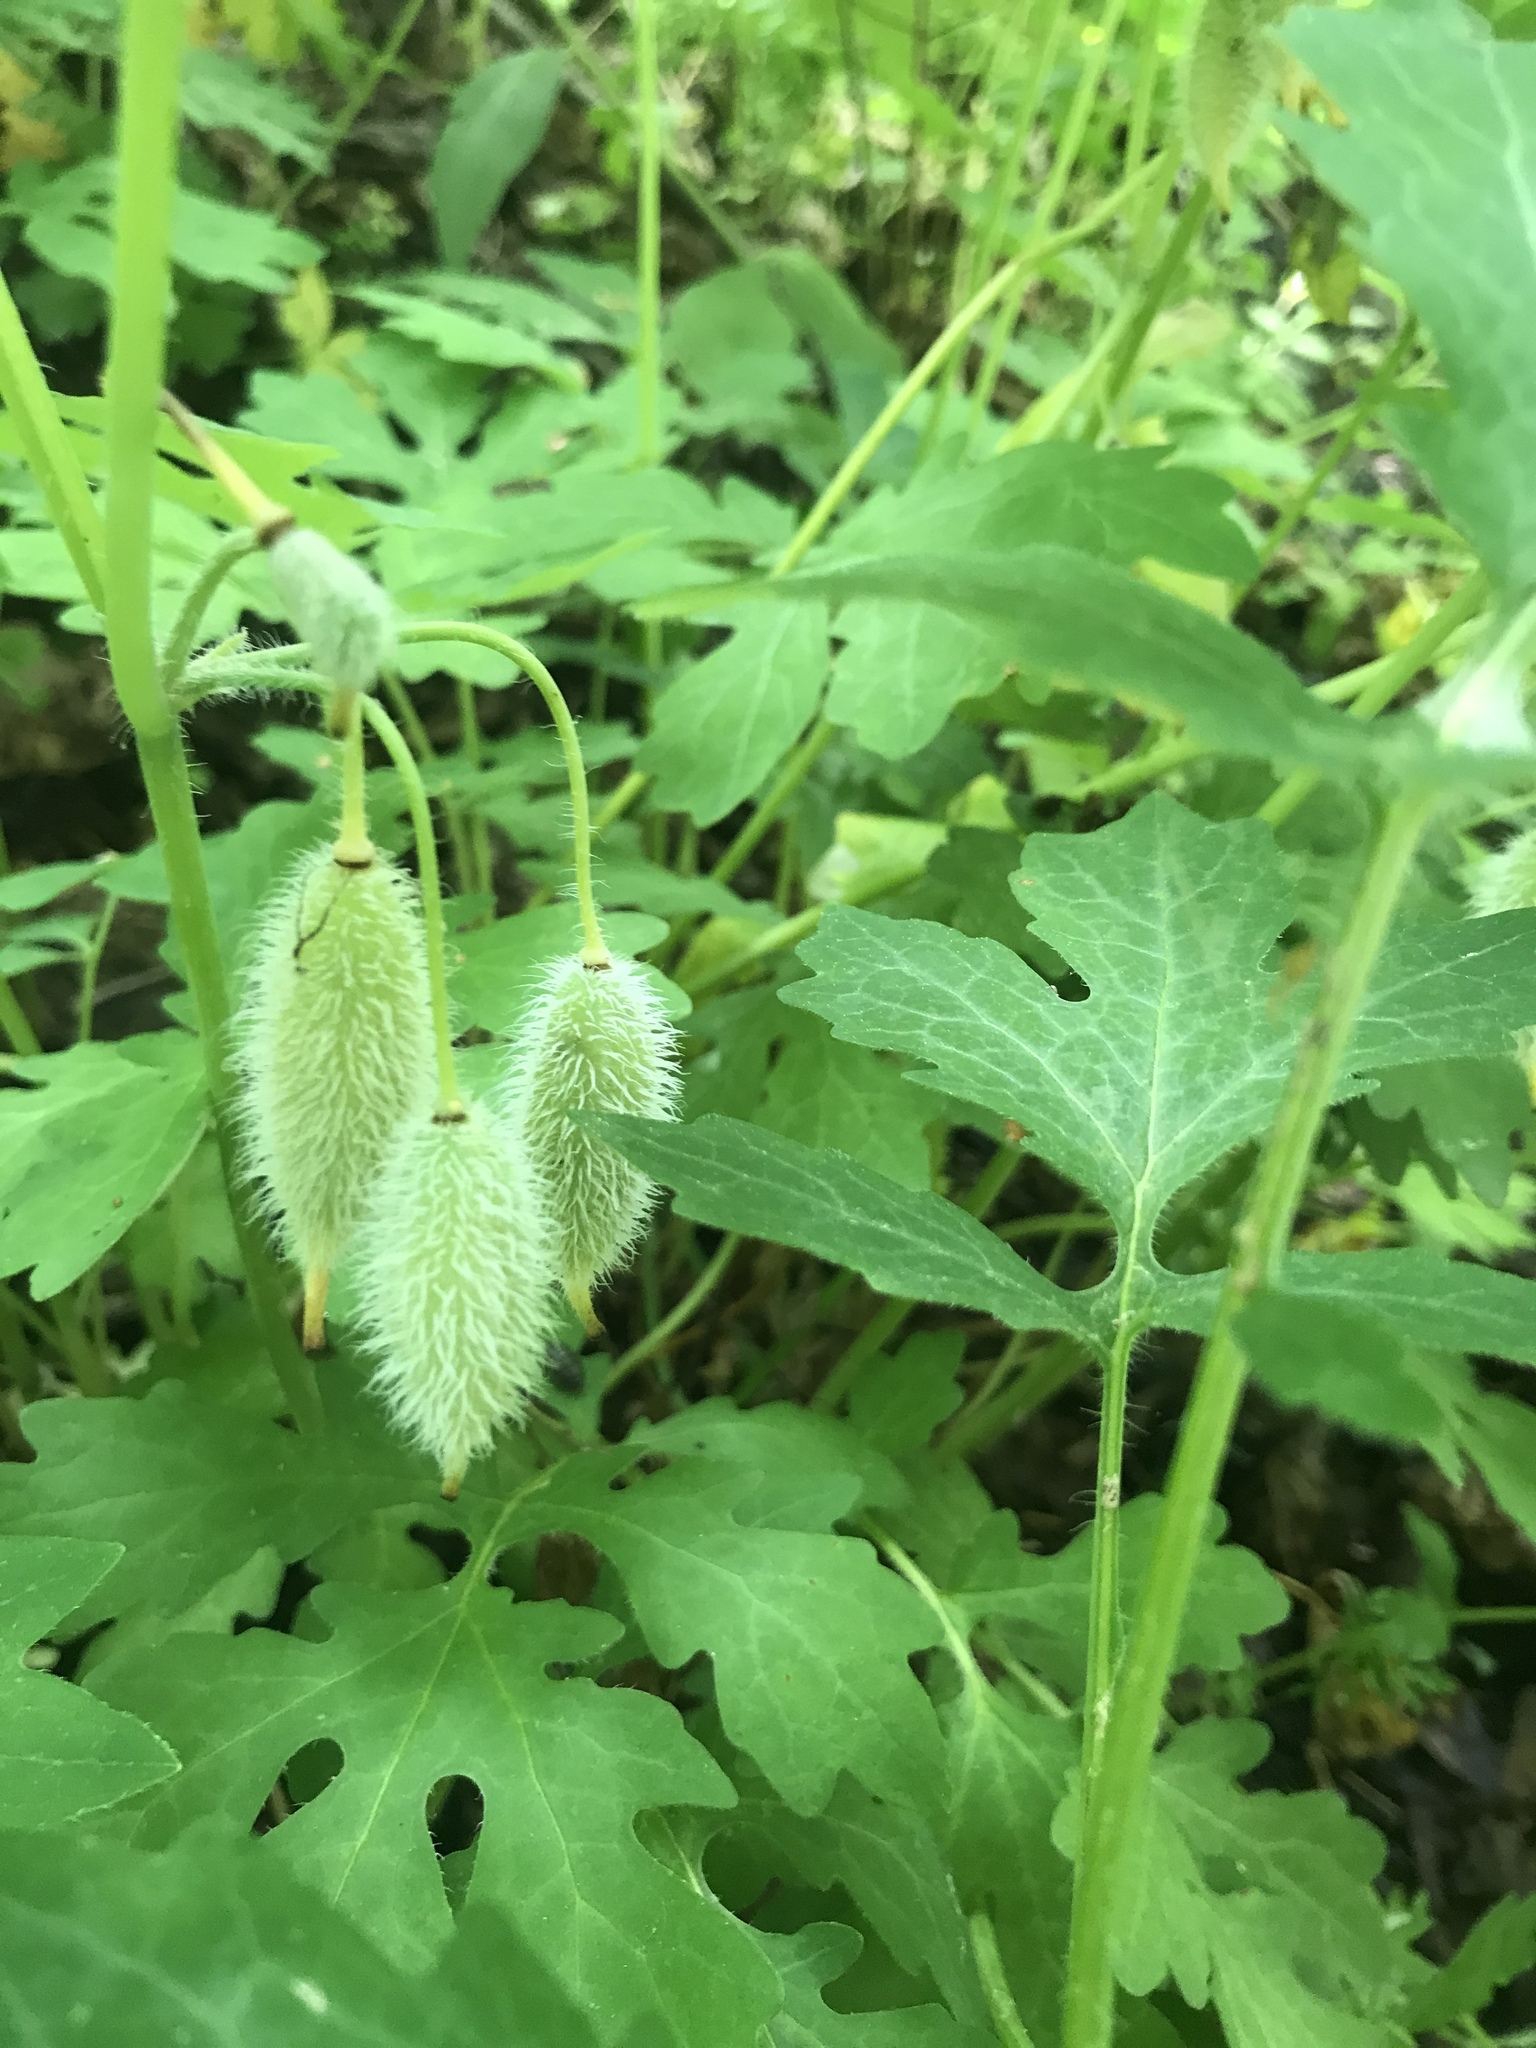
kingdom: Plantae
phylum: Tracheophyta
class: Magnoliopsida
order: Ranunculales
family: Papaveraceae
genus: Stylophorum
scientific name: Stylophorum diphyllum
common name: Celandine poppy
